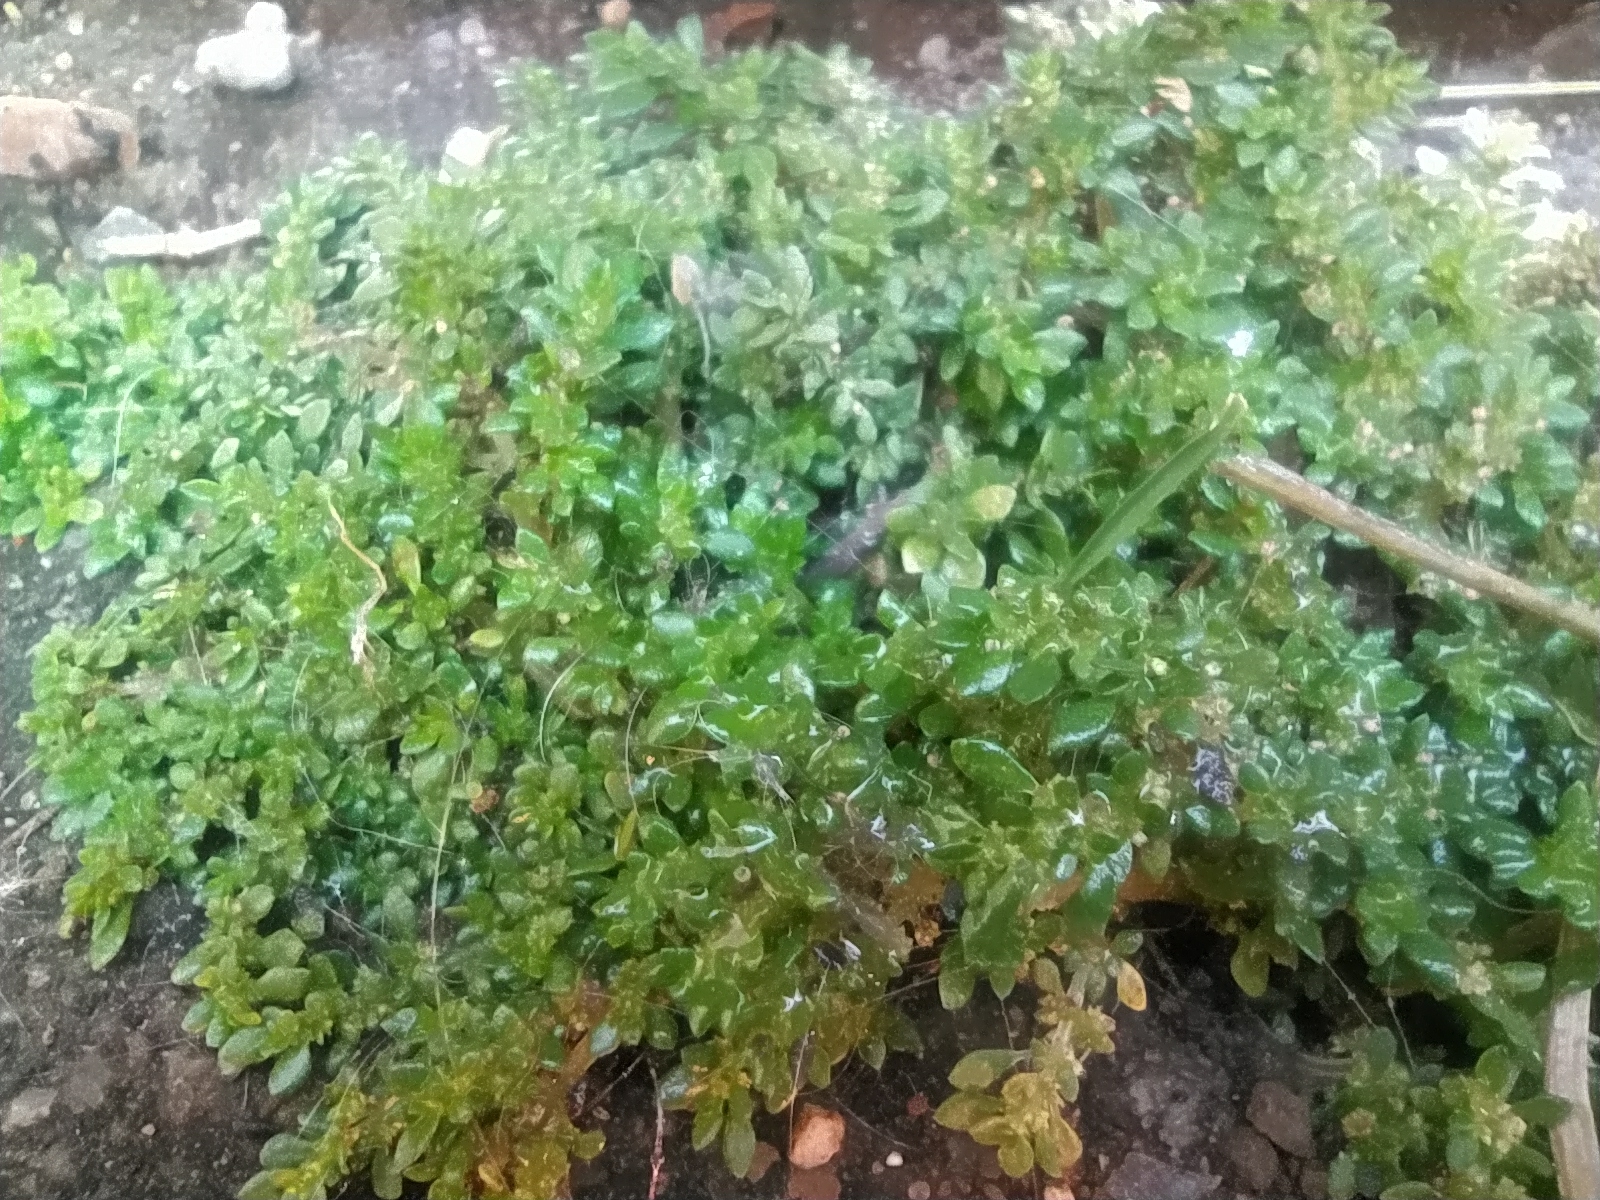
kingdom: Plantae
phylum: Tracheophyta
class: Magnoliopsida
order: Rosales
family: Urticaceae
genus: Pilea
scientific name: Pilea microphylla
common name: Artillery-plant
